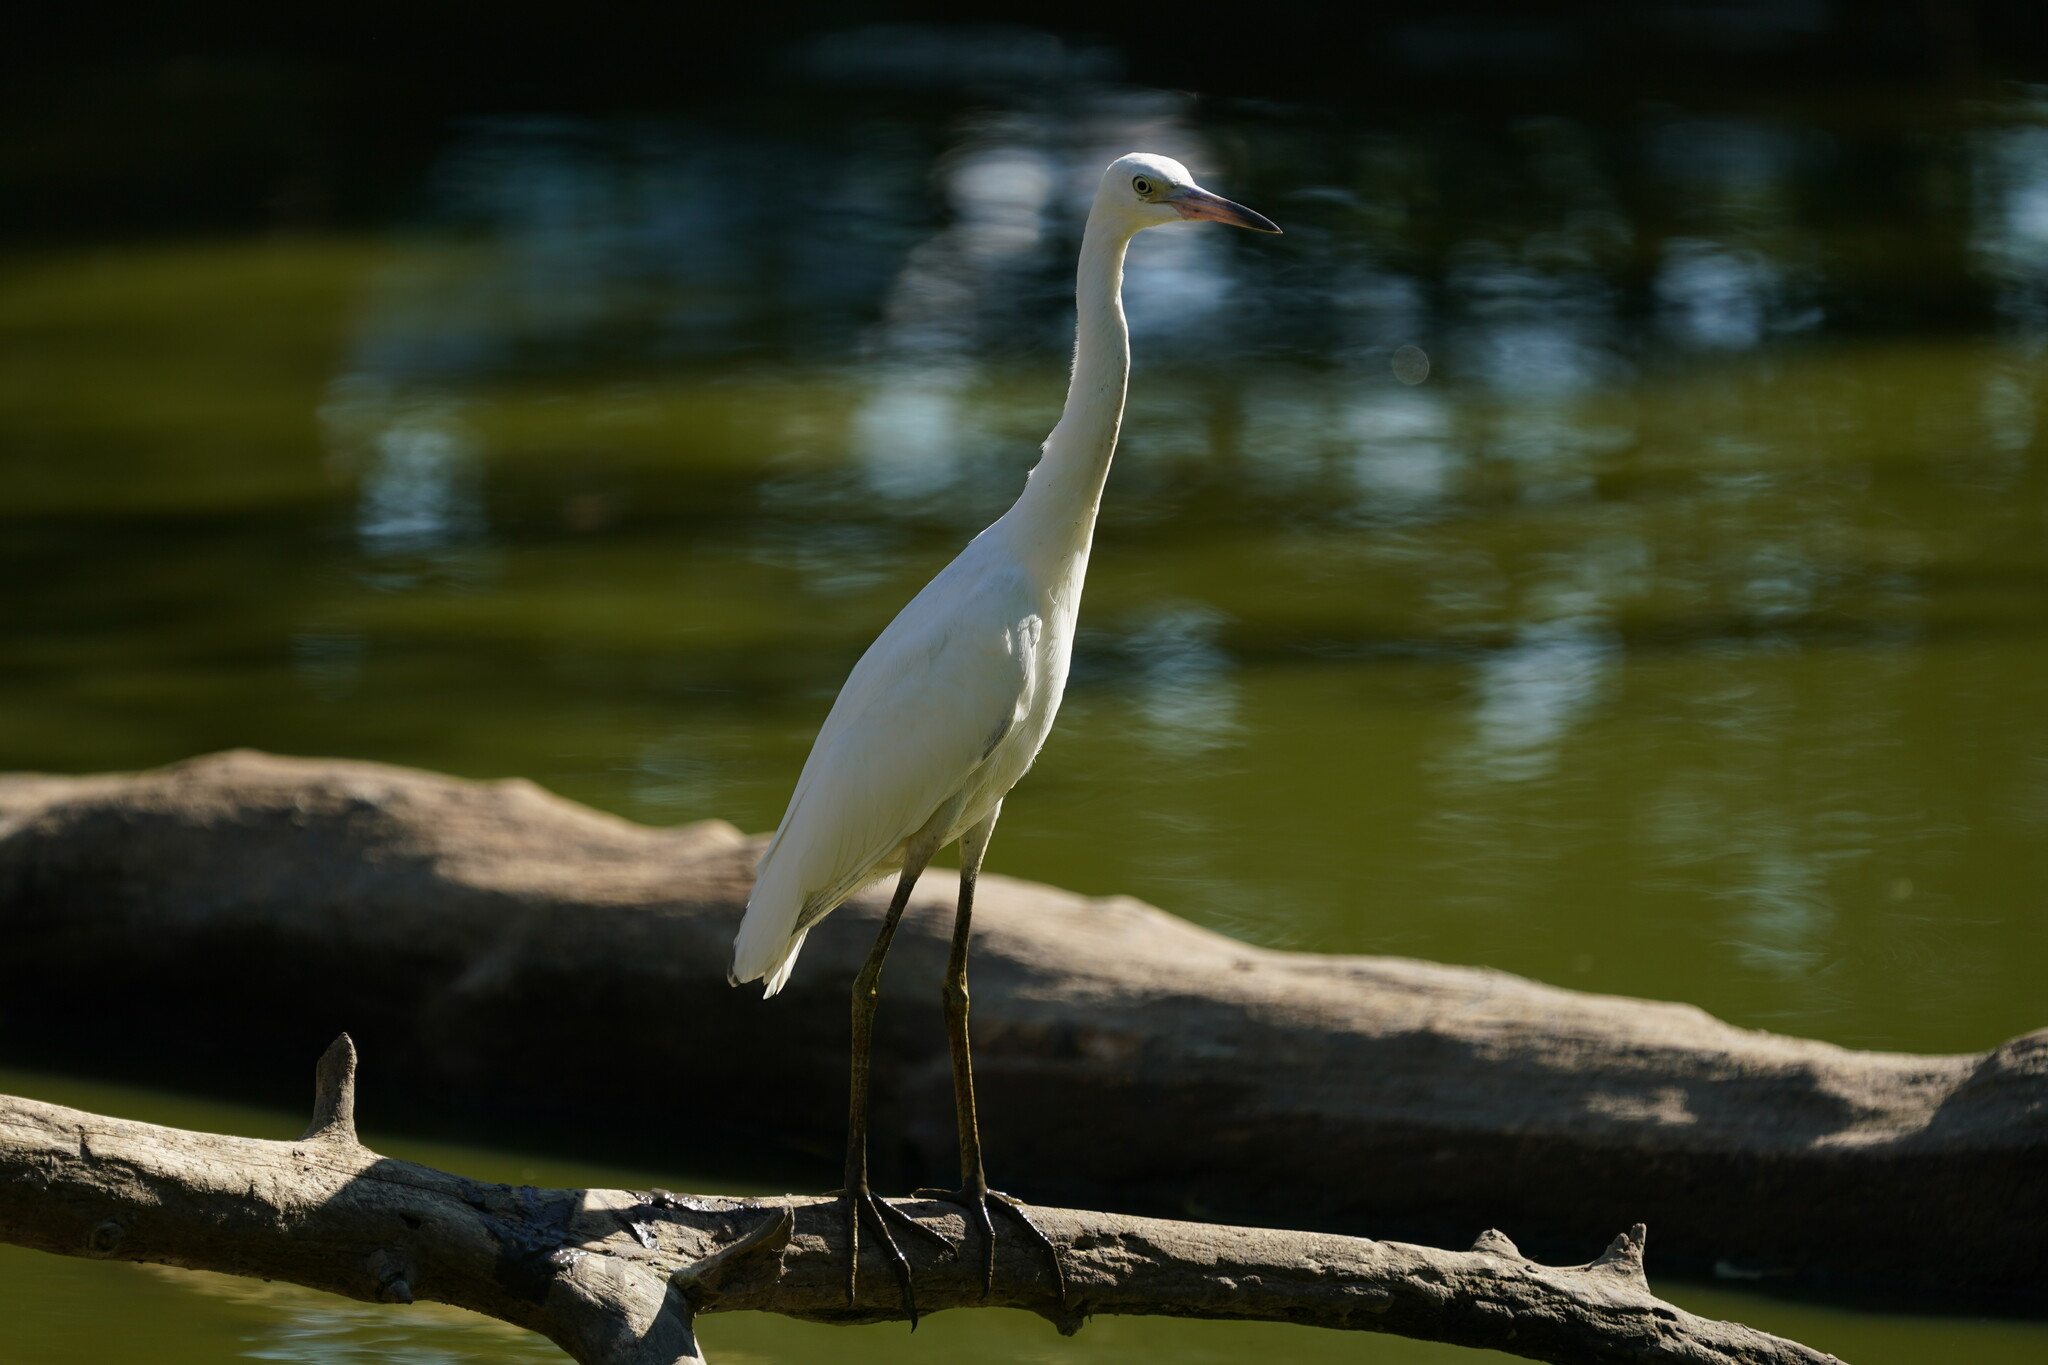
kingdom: Animalia
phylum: Chordata
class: Aves
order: Pelecaniformes
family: Ardeidae
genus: Egretta
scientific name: Egretta caerulea
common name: Little blue heron
